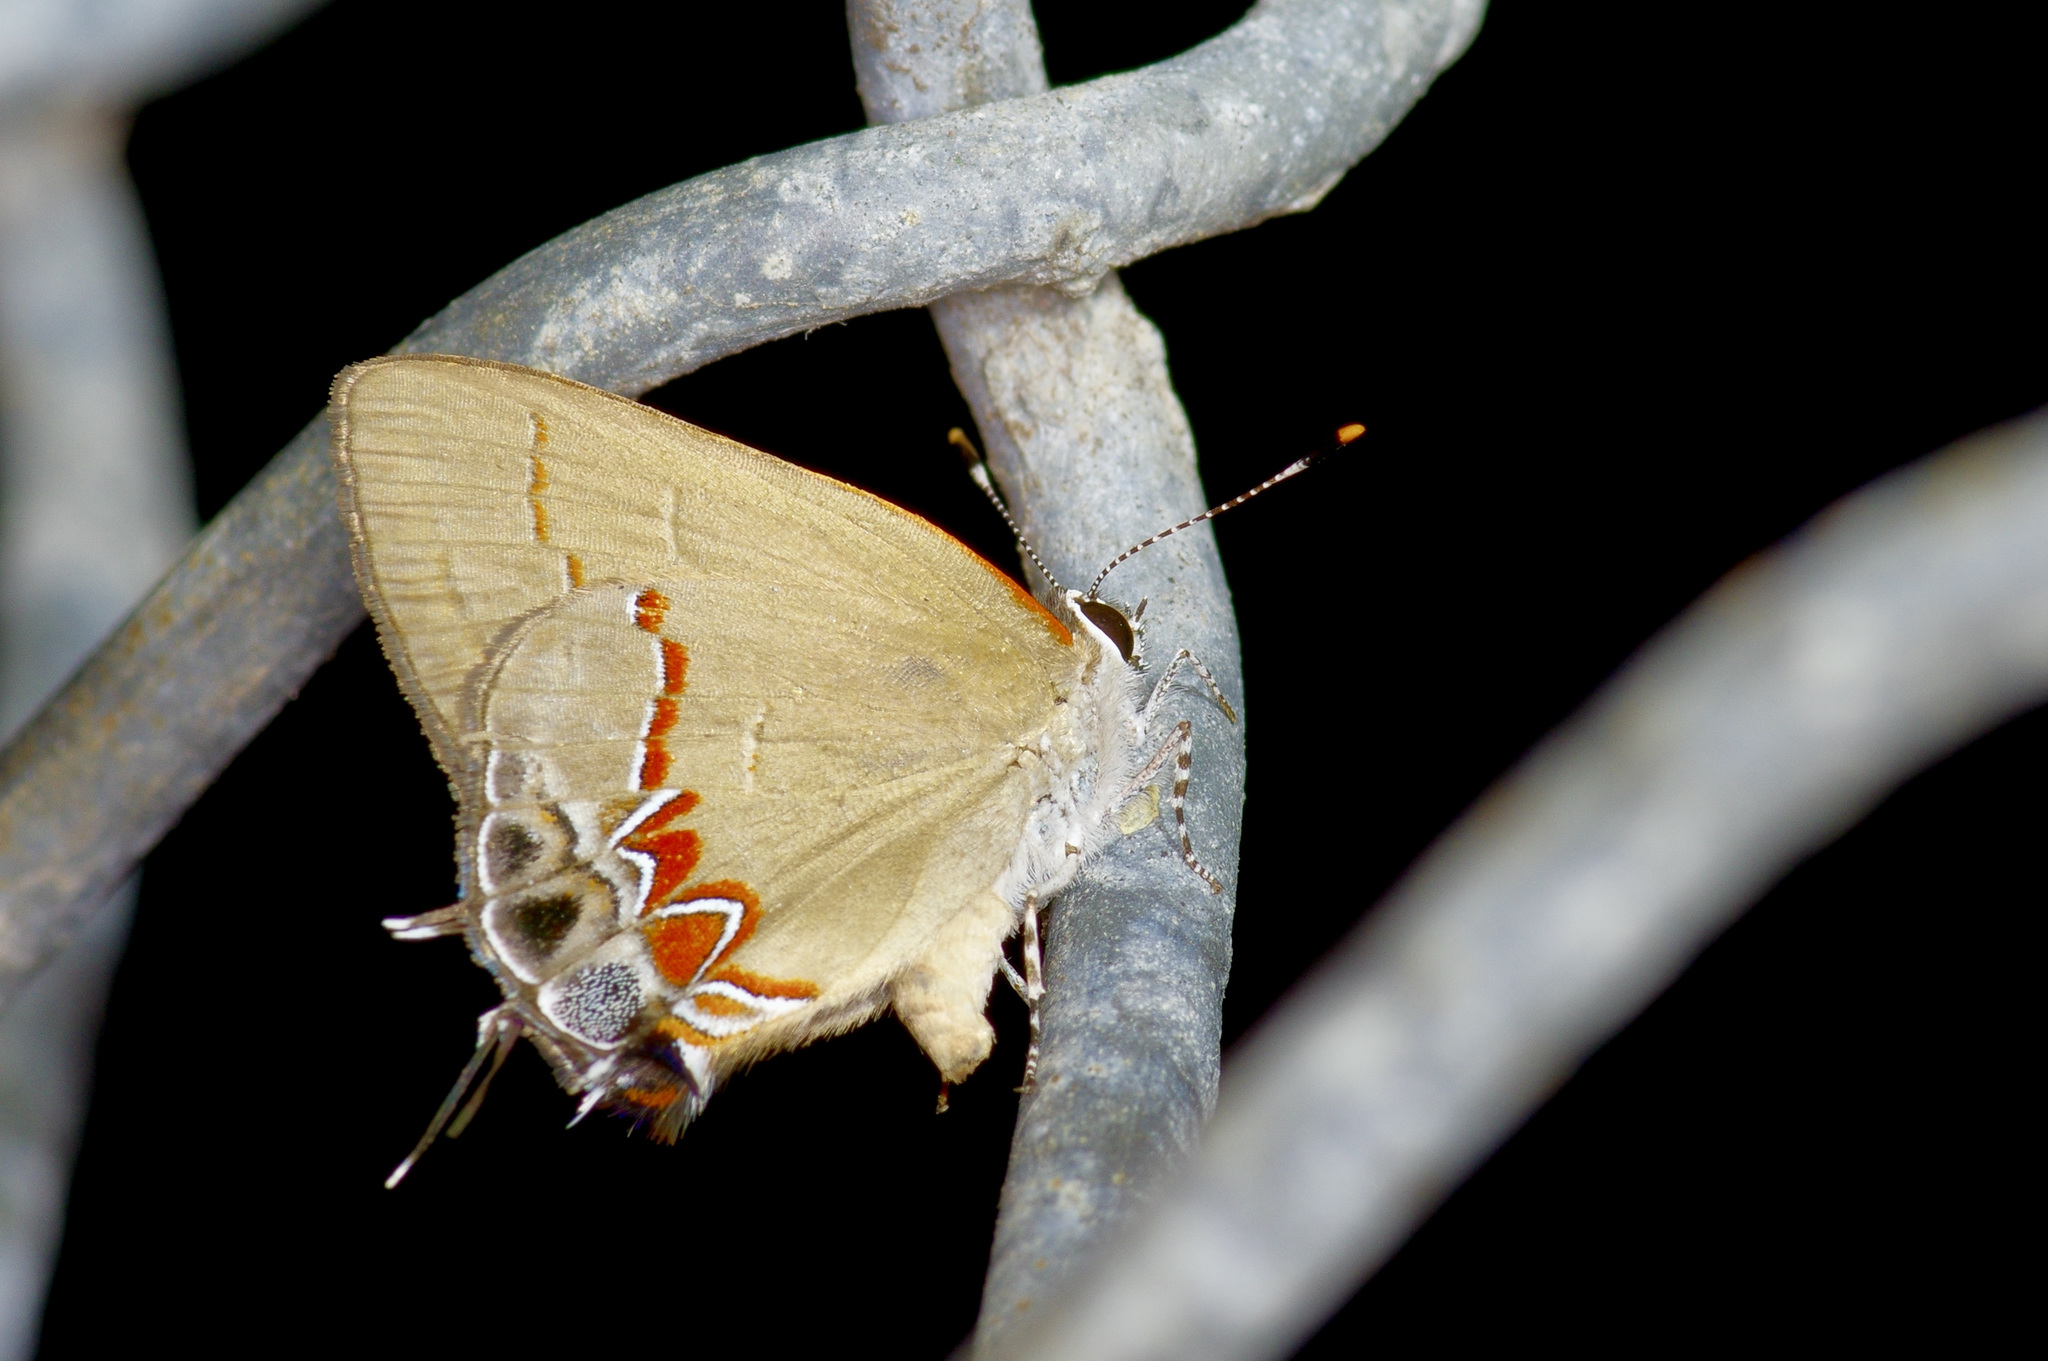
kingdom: Animalia
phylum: Arthropoda
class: Insecta
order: Lepidoptera
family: Lycaenidae
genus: Calycopis
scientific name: Calycopis isobeon
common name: Dusky-blue groundstreak
